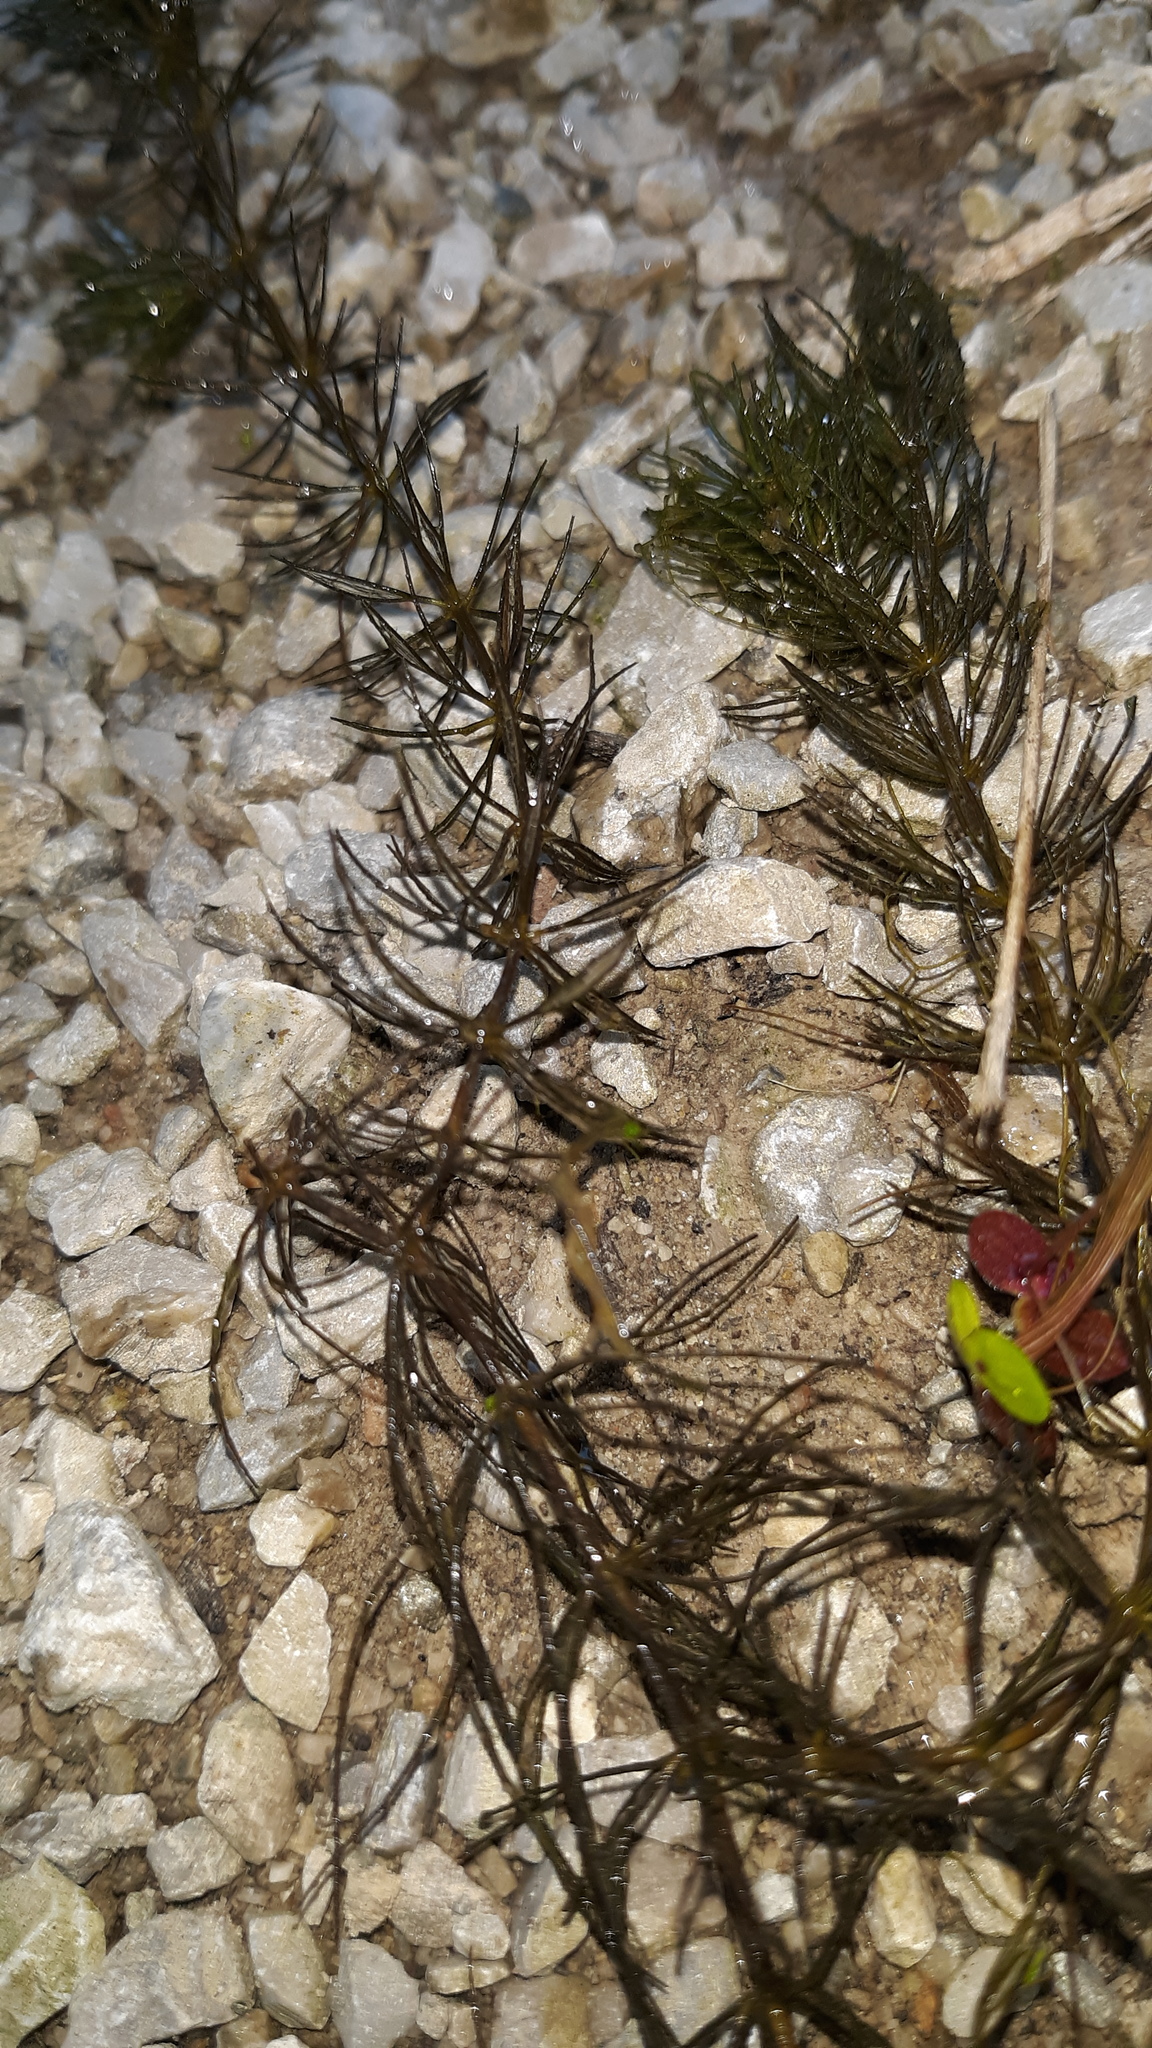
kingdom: Plantae
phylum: Tracheophyta
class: Magnoliopsida
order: Ceratophyllales
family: Ceratophyllaceae
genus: Ceratophyllum
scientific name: Ceratophyllum demersum
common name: Rigid hornwort
